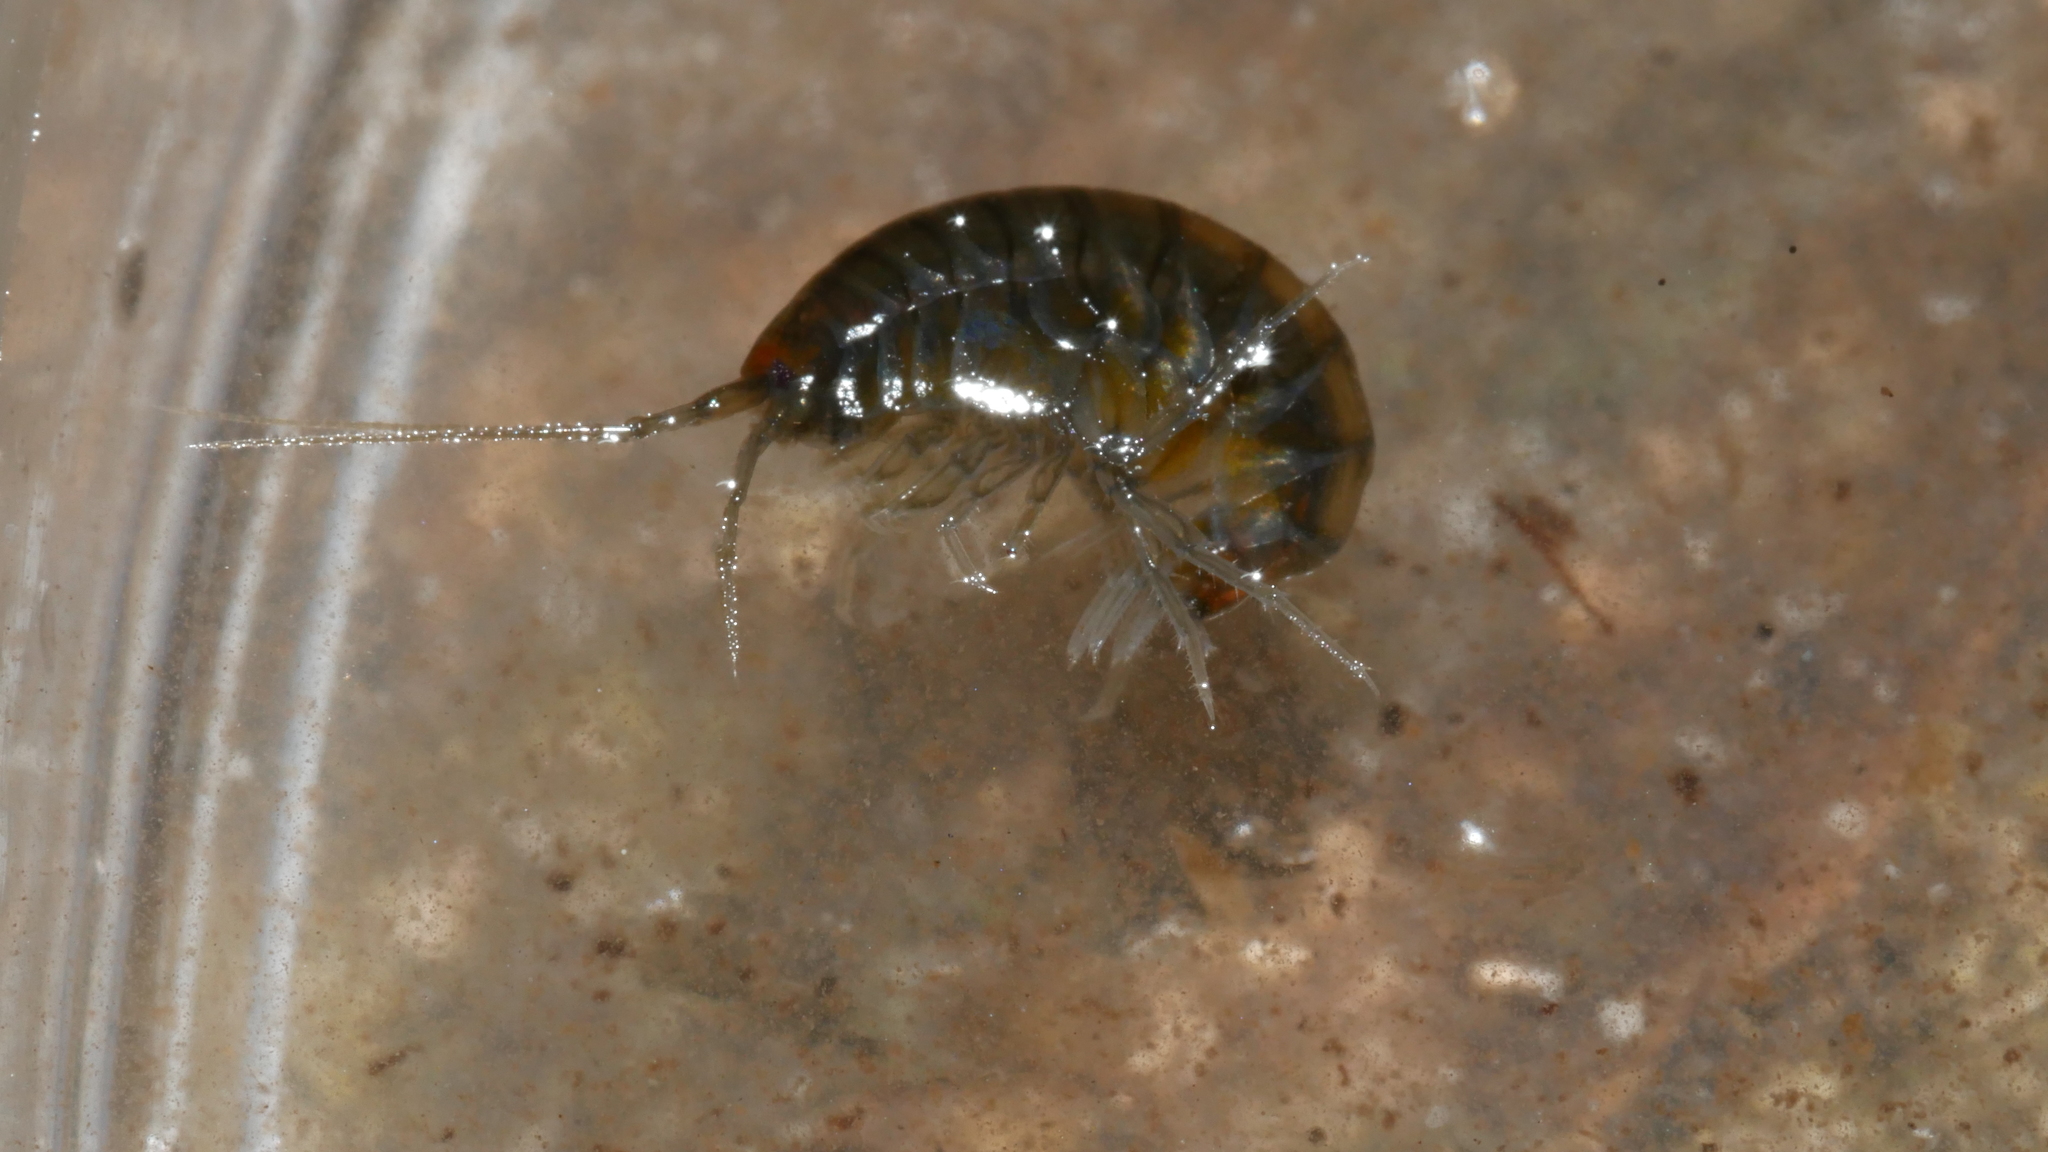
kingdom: Animalia
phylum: Arthropoda
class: Malacostraca
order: Amphipoda
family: Crangonyctidae
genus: Sicifera
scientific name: Sicifera chamberlaini
